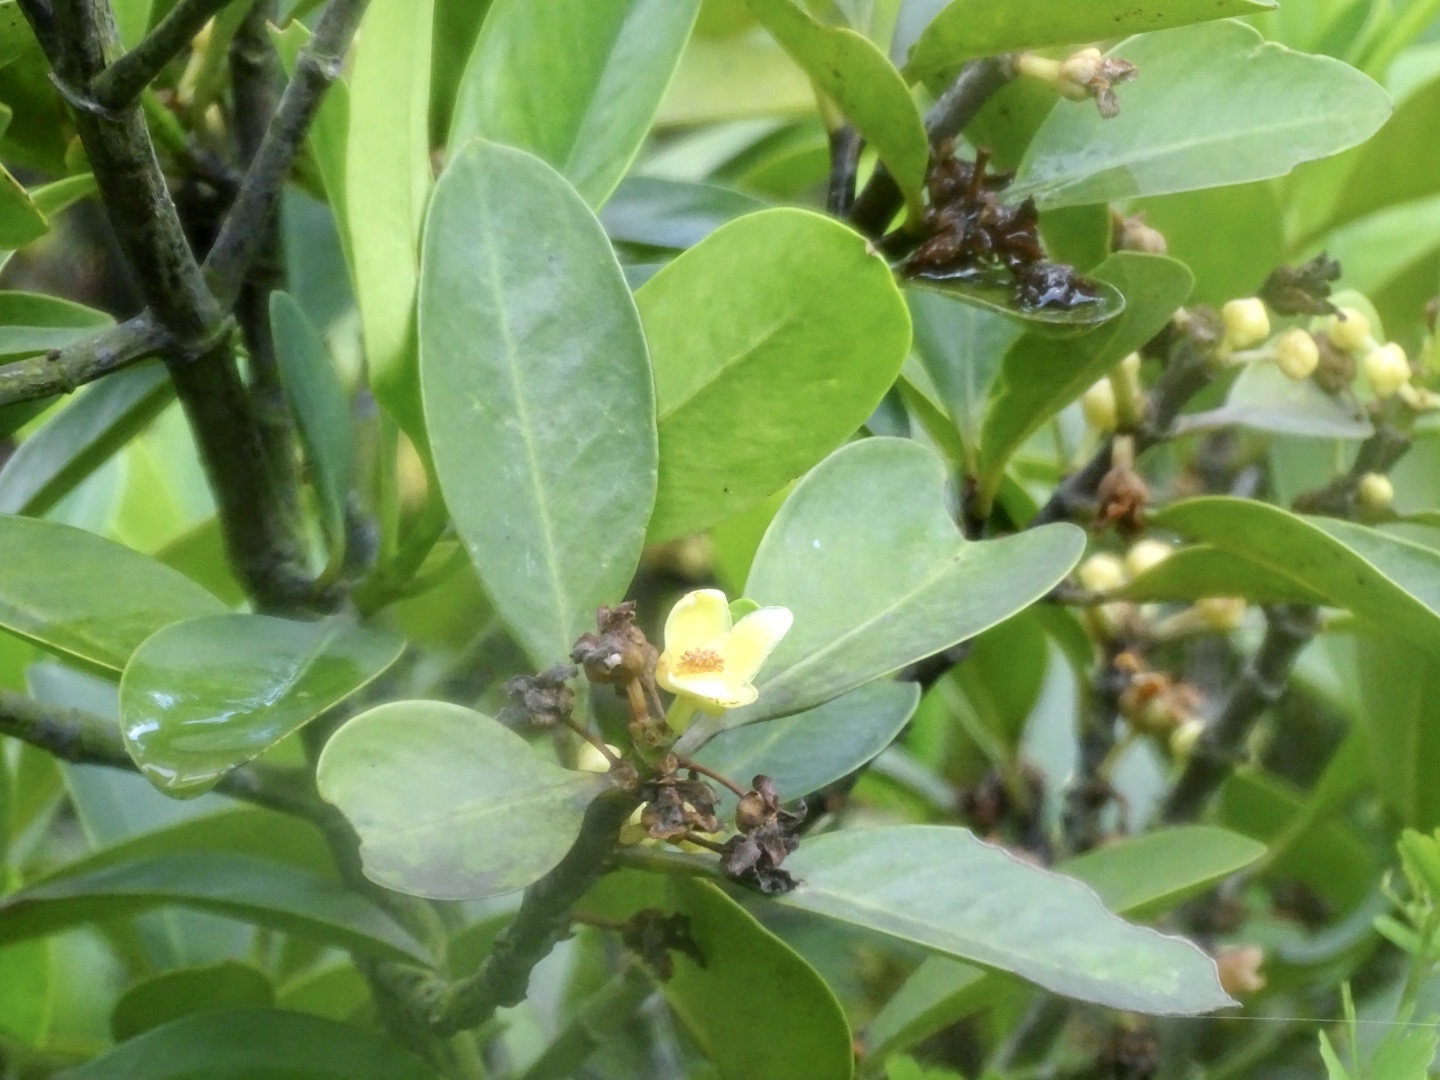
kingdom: Plantae
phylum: Tracheophyta
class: Magnoliopsida
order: Malpighiales
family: Clusiaceae
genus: Garcinia
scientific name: Garcinia oblongifolia
